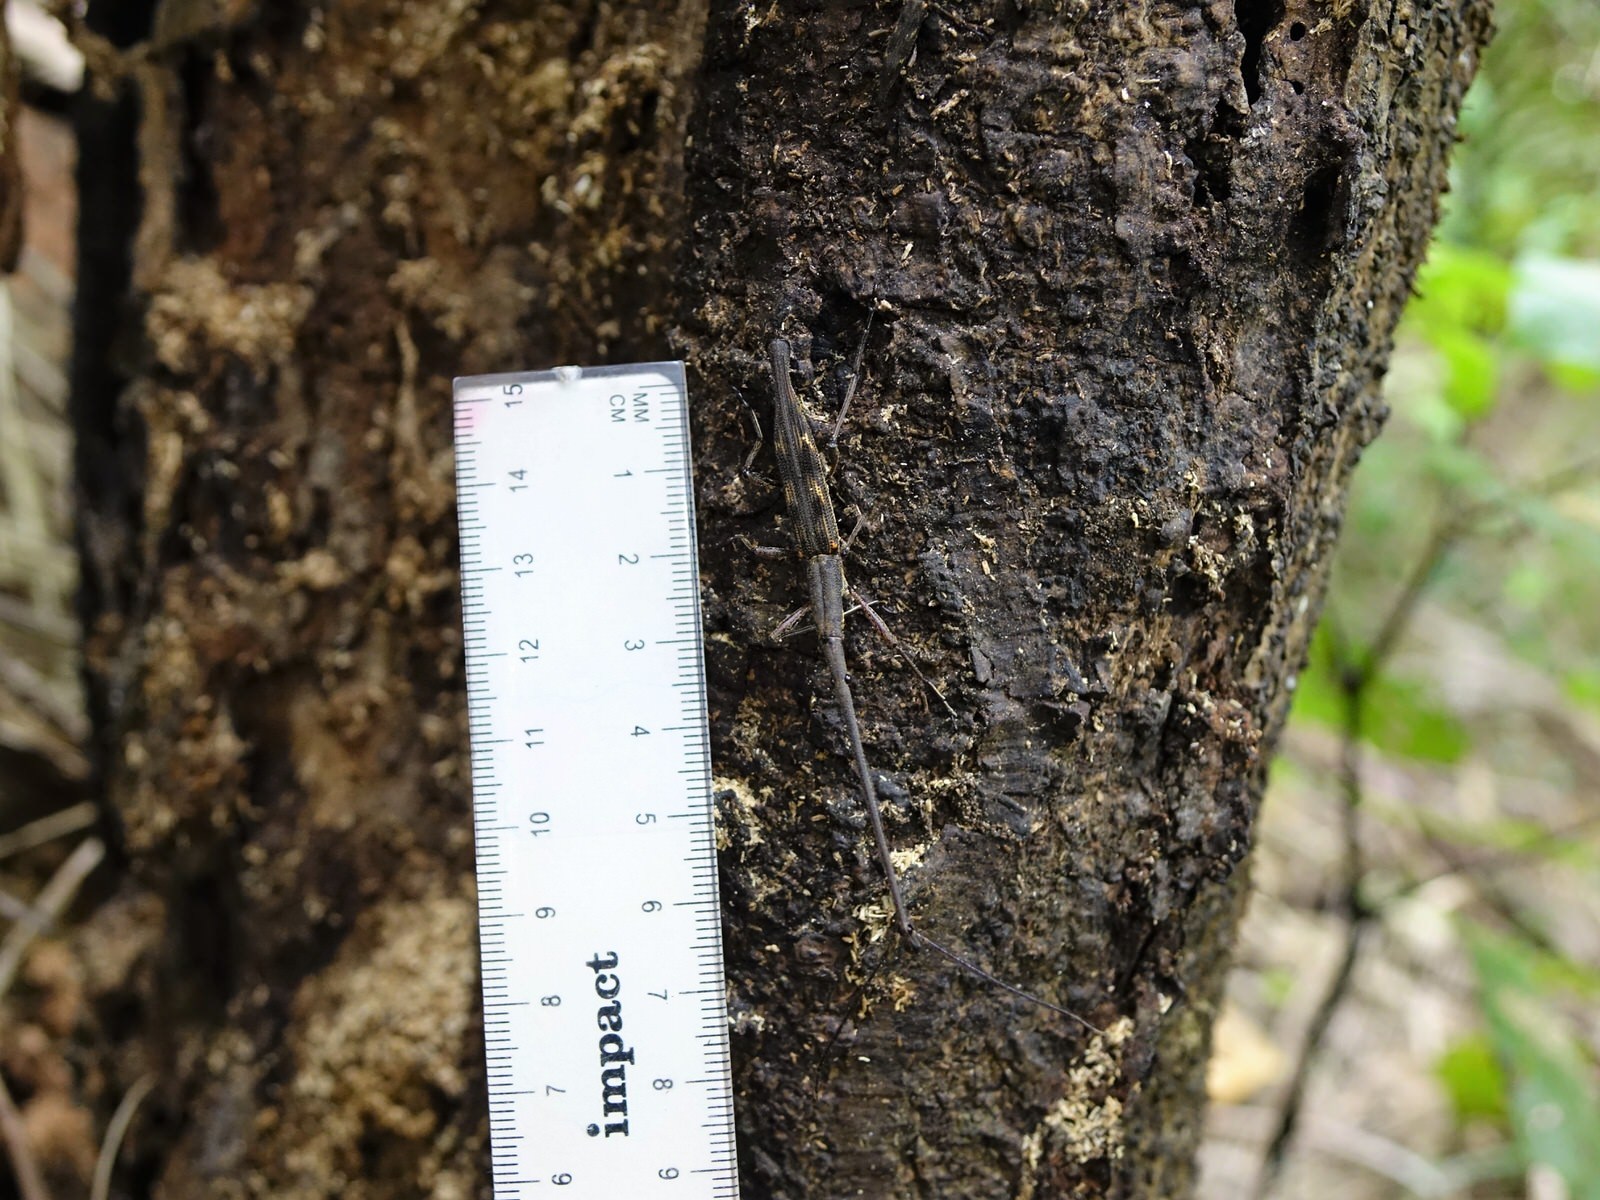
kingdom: Animalia
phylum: Arthropoda
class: Insecta
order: Coleoptera
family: Brentidae
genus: Lasiorhynchus
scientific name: Lasiorhynchus barbicornis
